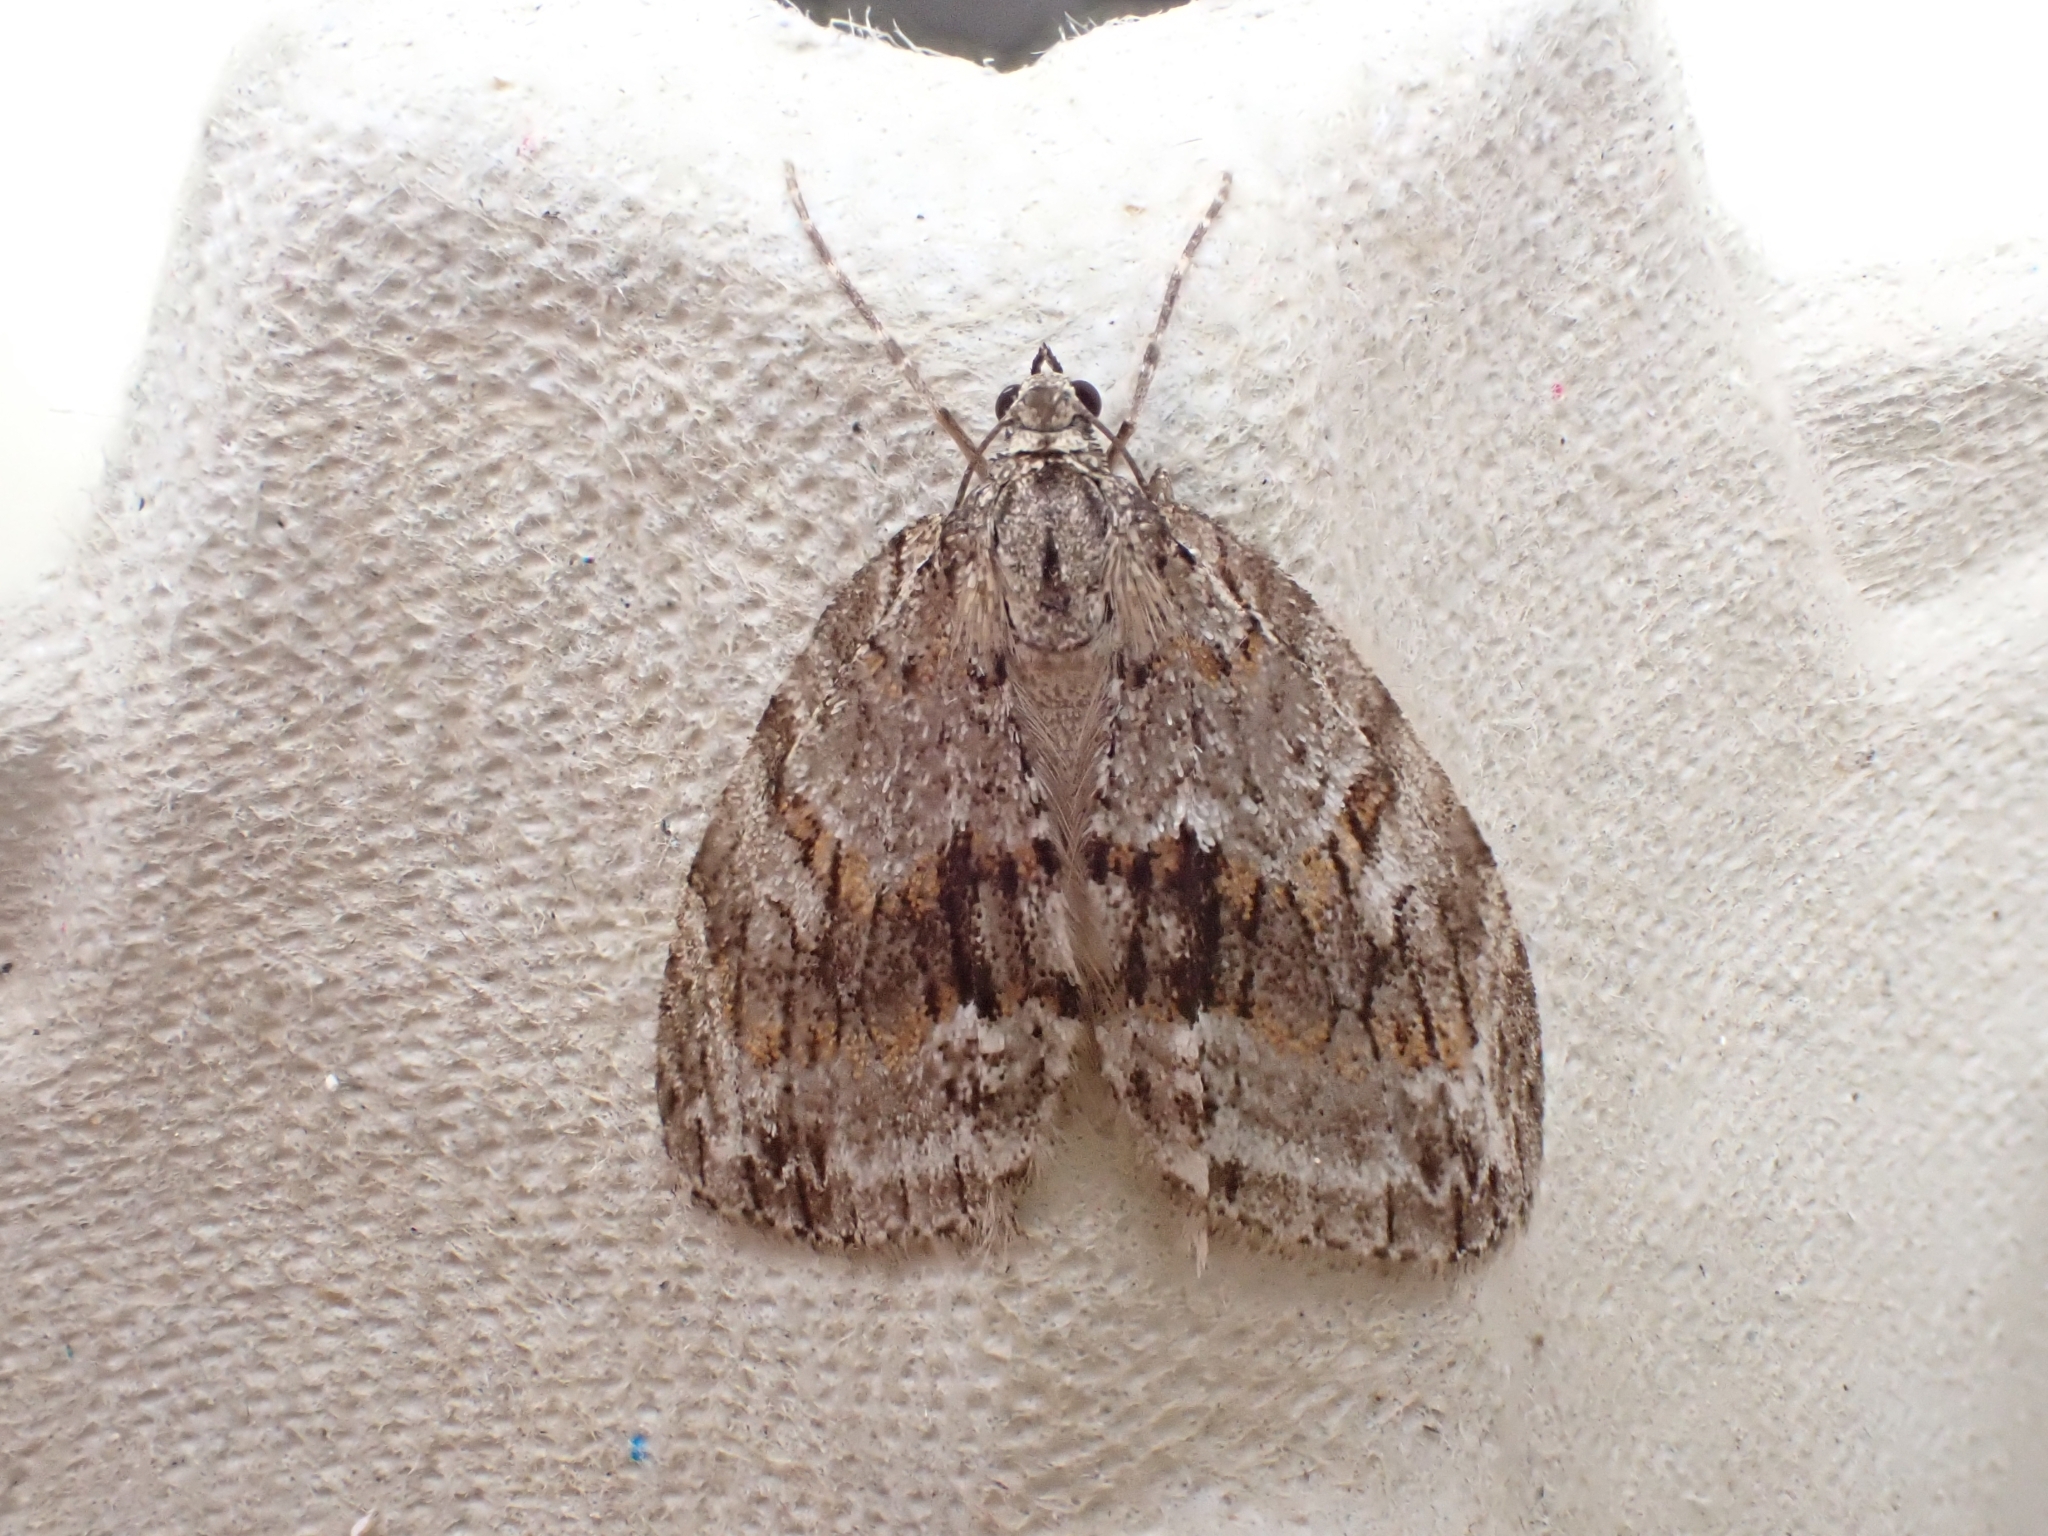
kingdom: Animalia
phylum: Arthropoda
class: Insecta
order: Lepidoptera
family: Geometridae
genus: Trichopteryx
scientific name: Trichopteryx polycommata
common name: Barred tooth-striped
